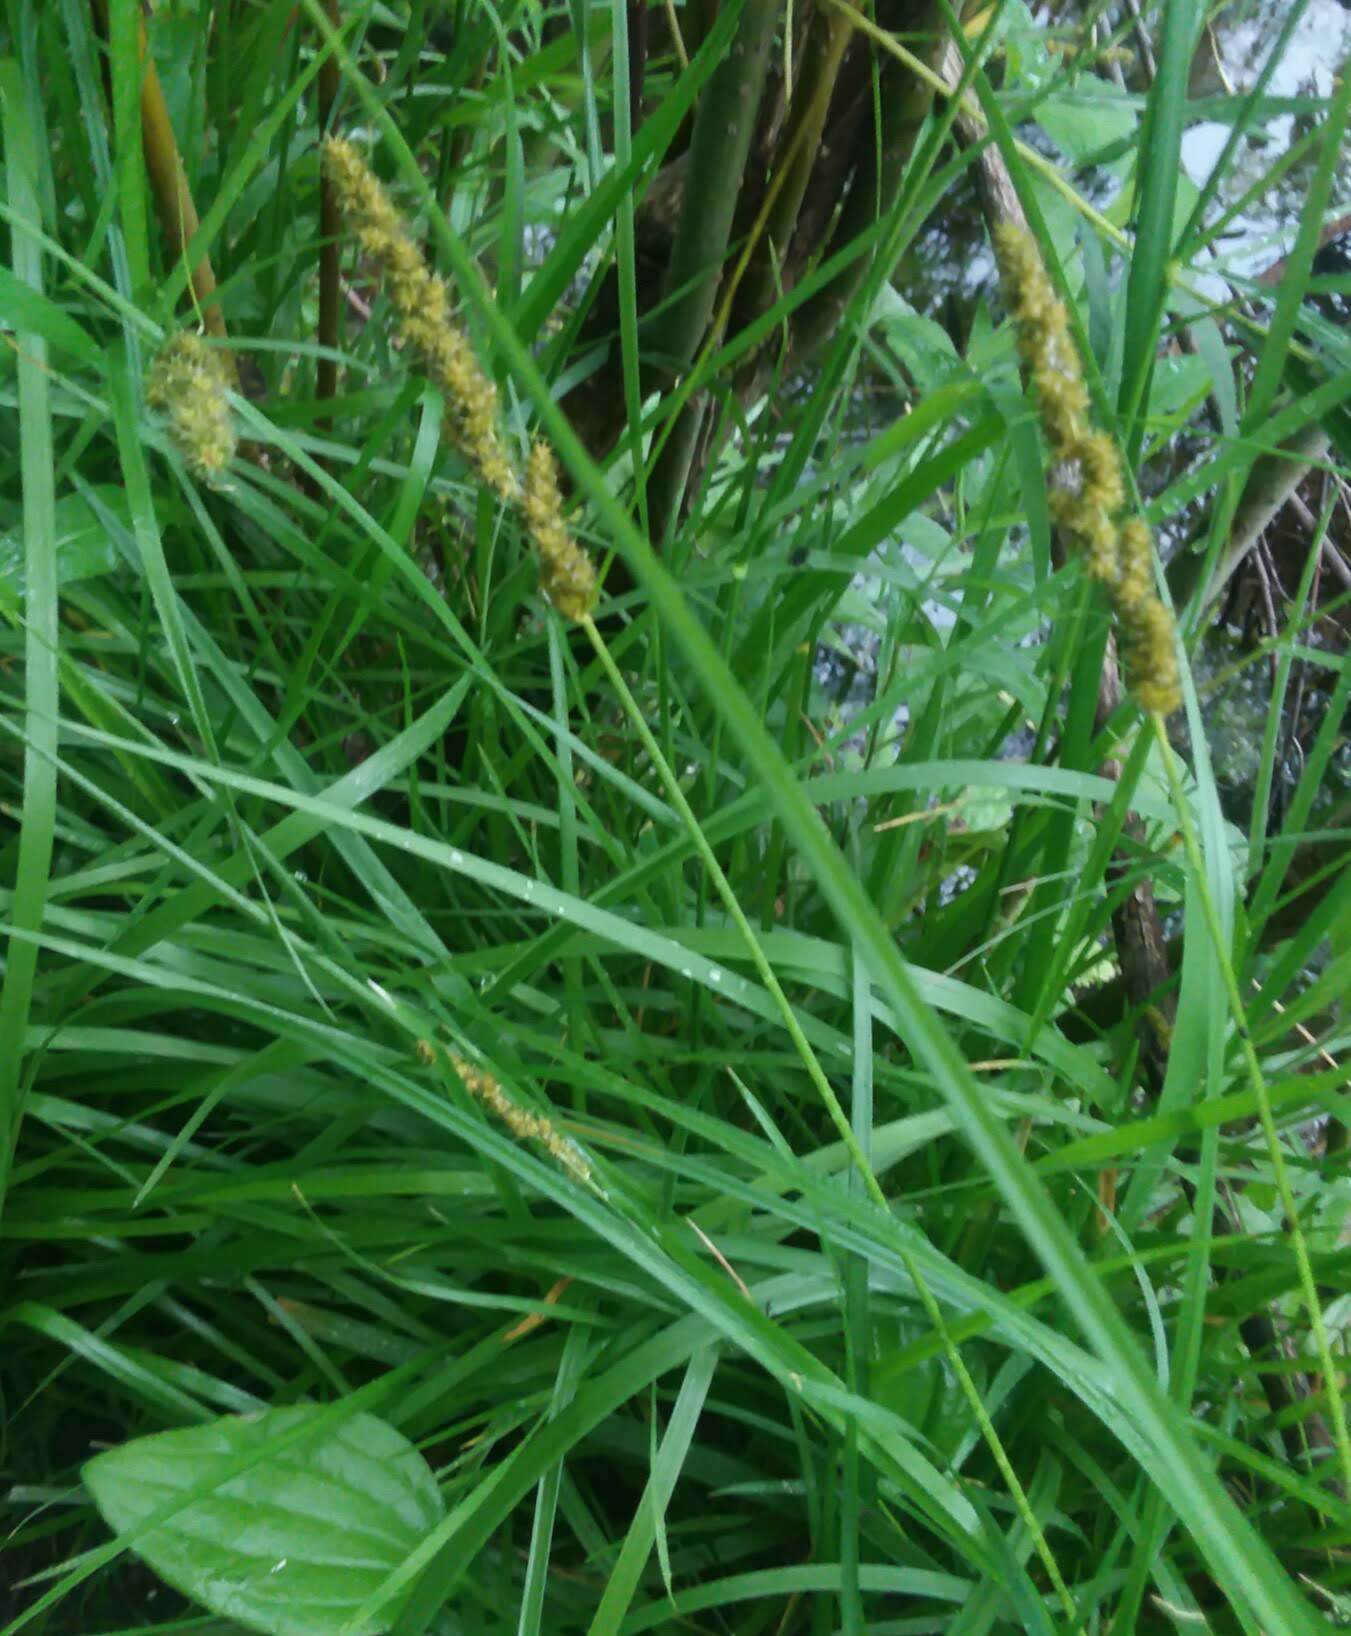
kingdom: Plantae
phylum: Tracheophyta
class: Liliopsida
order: Poales
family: Cyperaceae
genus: Carex
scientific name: Carex vulpinoidea
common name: American fox-sedge
